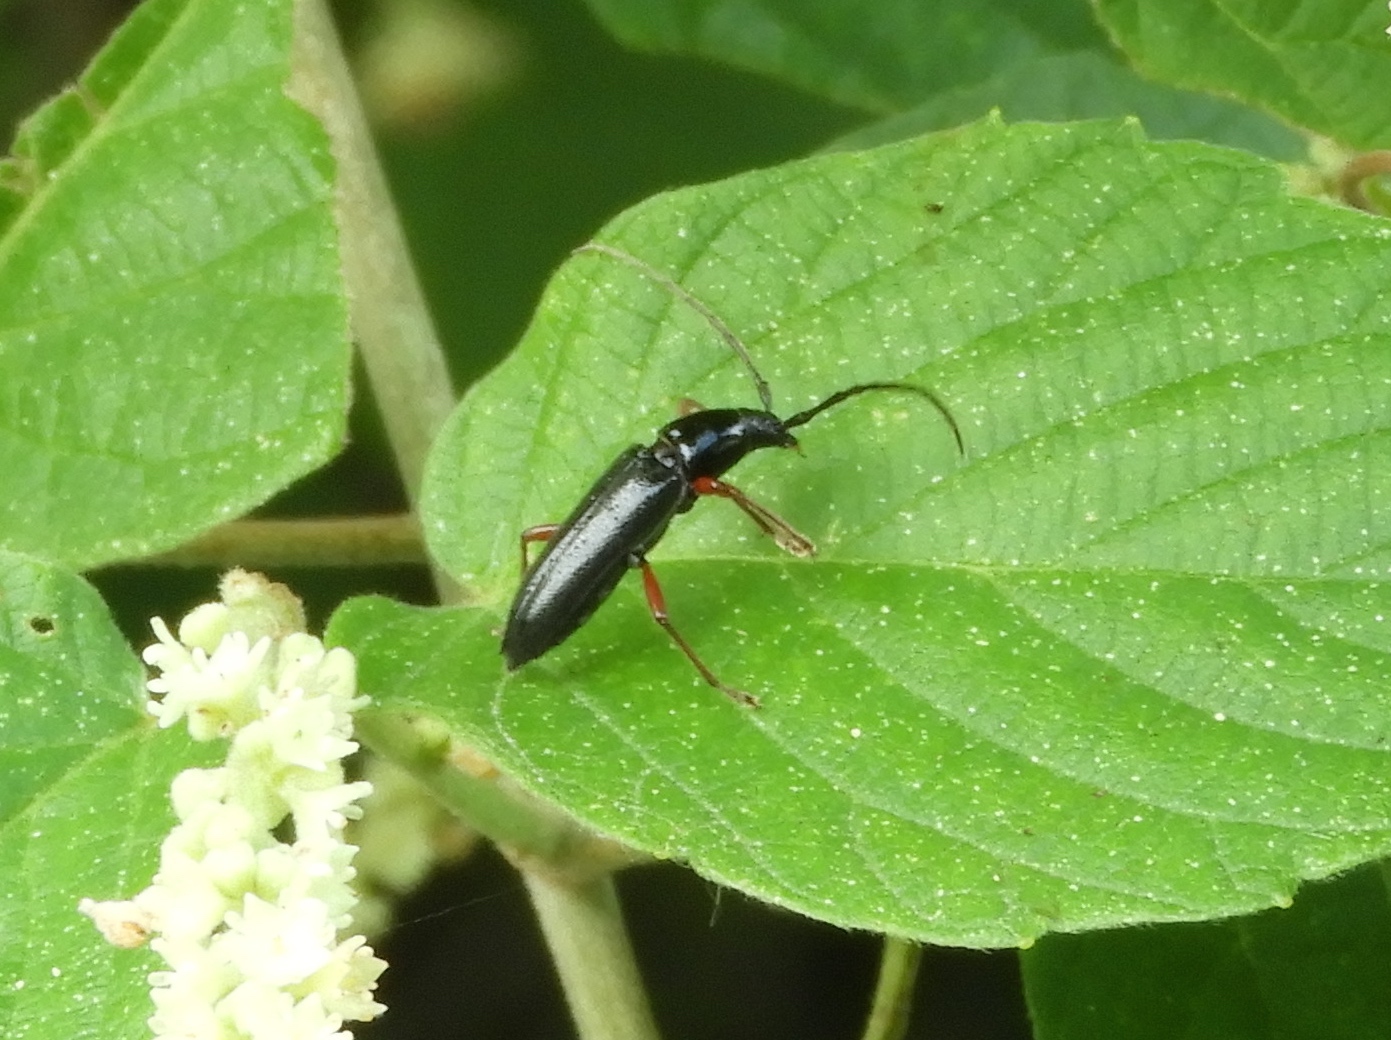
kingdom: Animalia
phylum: Arthropoda
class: Insecta
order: Coleoptera
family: Cerambycidae
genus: Stenosphenus
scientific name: Stenosphenus
